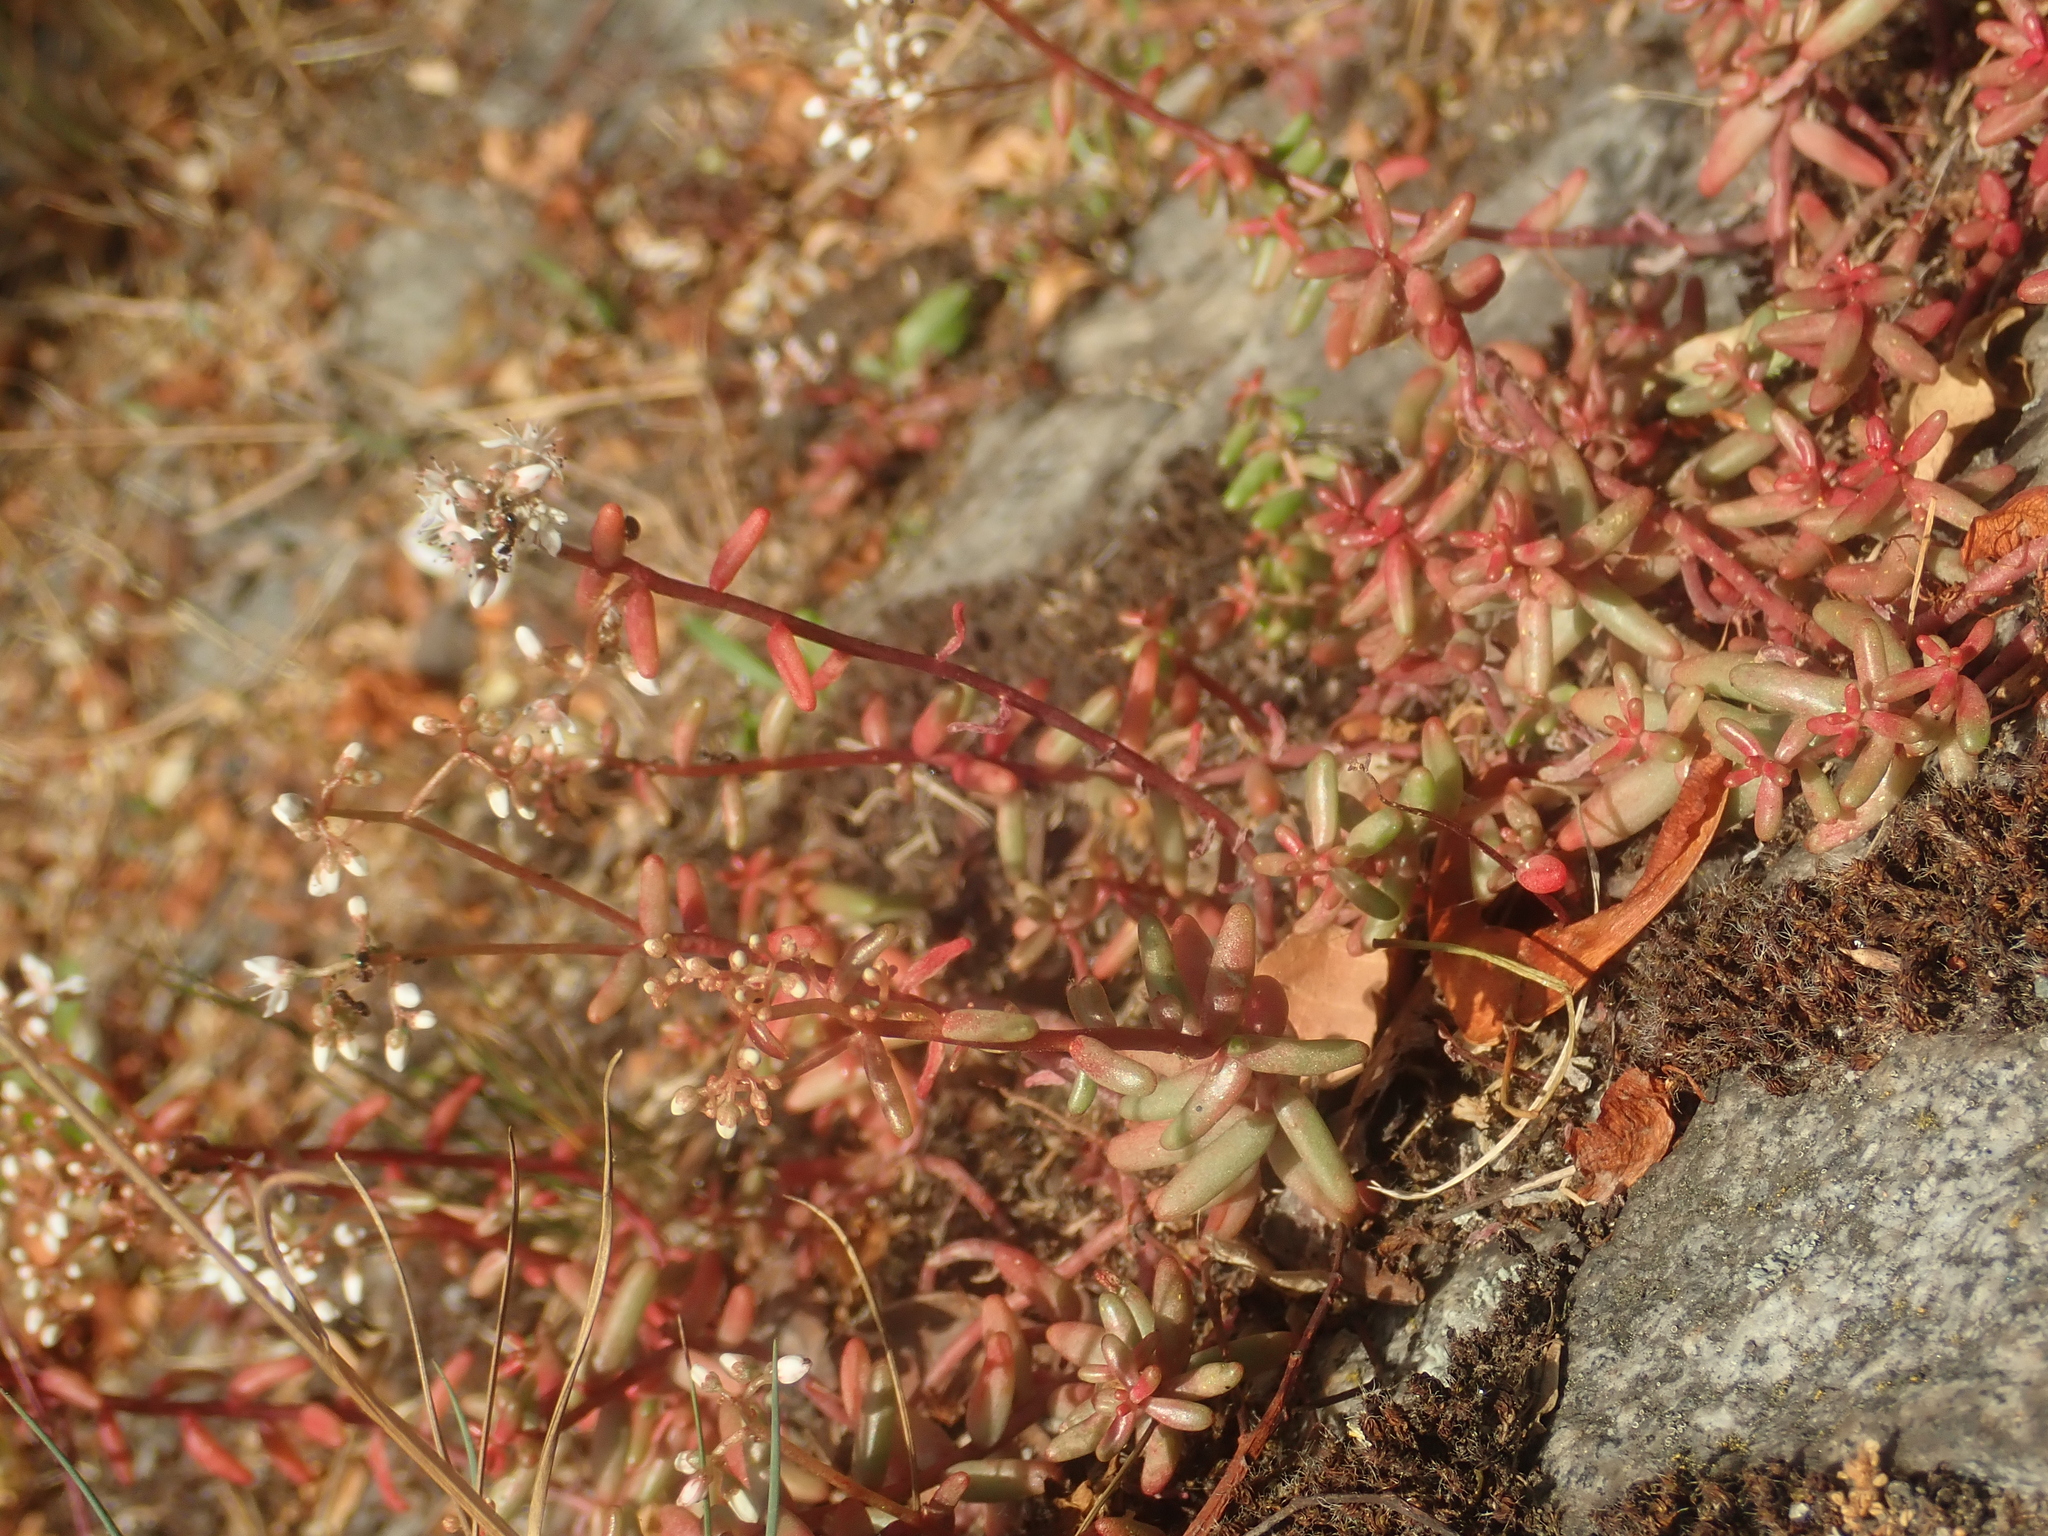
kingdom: Plantae
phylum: Tracheophyta
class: Magnoliopsida
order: Saxifragales
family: Crassulaceae
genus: Sedum
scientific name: Sedum album
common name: White stonecrop
